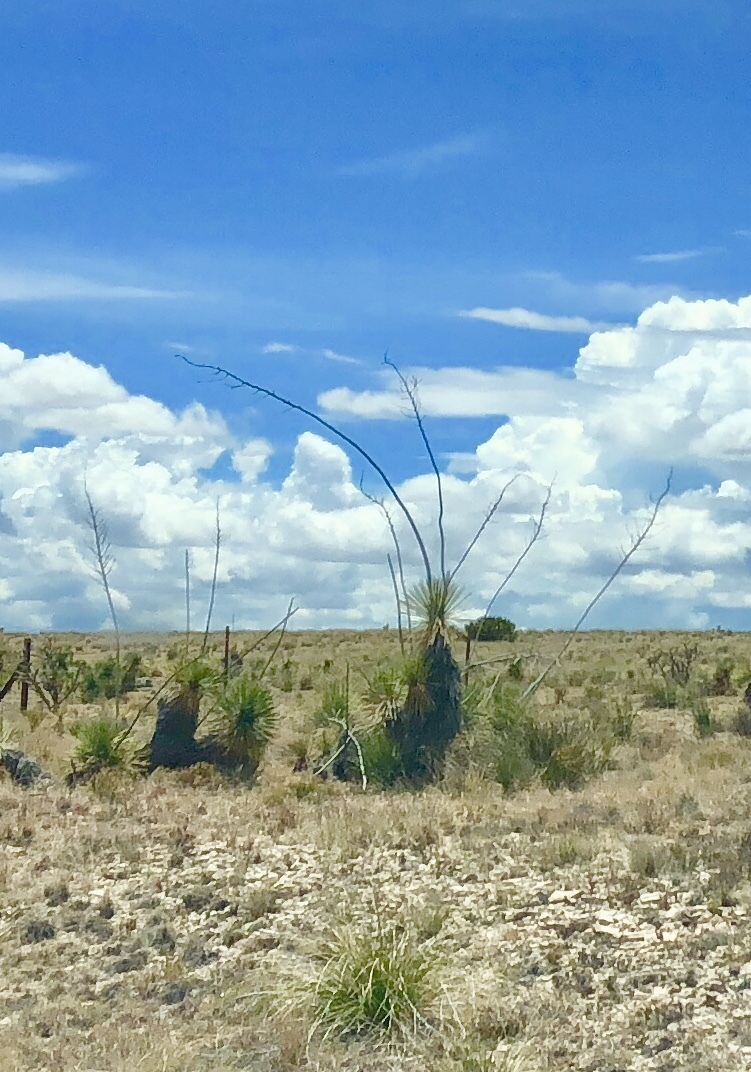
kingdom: Plantae
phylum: Tracheophyta
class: Liliopsida
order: Asparagales
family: Asparagaceae
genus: Yucca
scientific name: Yucca elata
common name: Palmella
